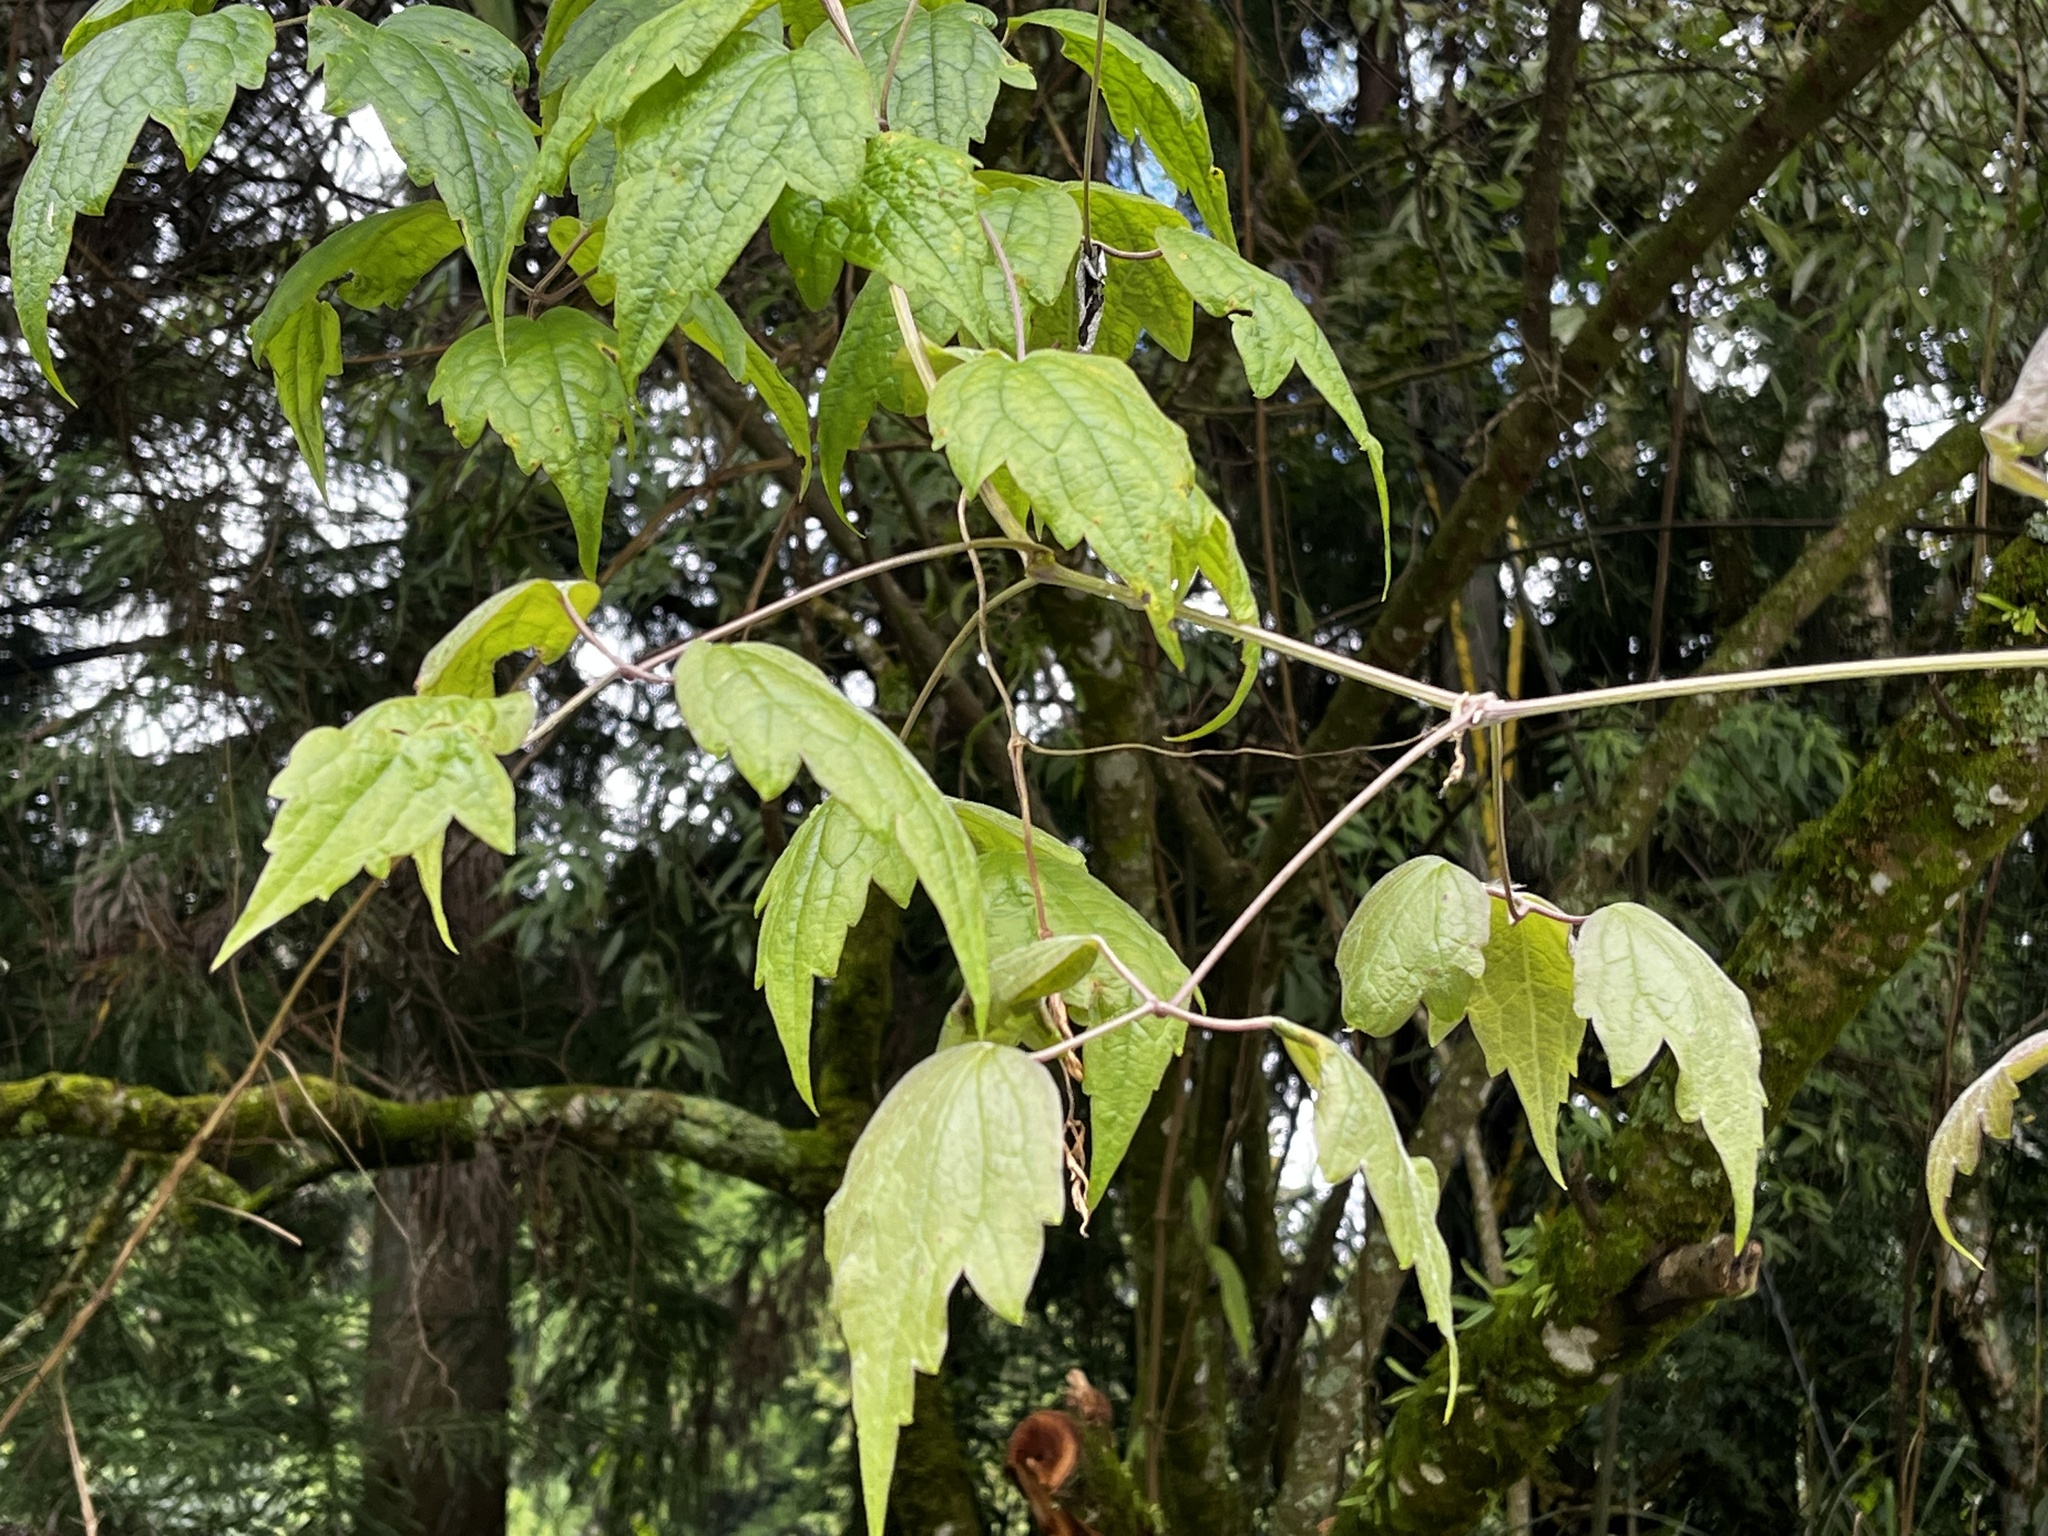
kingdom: Plantae
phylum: Tracheophyta
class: Magnoliopsida
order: Ranunculales
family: Ranunculaceae
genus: Clematis
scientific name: Clematis grata
